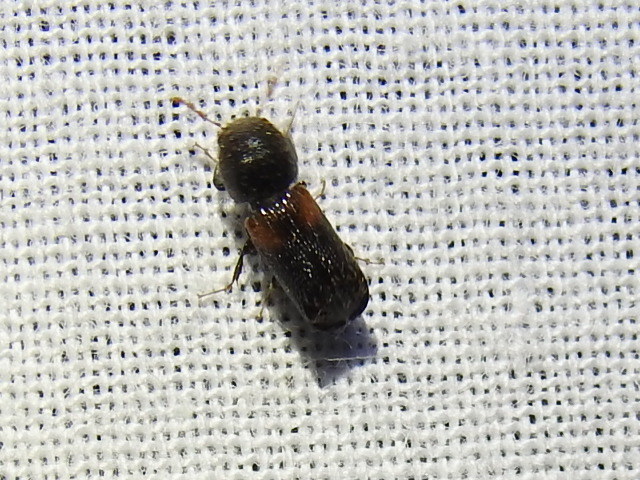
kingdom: Animalia
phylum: Arthropoda
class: Insecta
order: Coleoptera
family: Bostrichidae
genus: Xylobiops
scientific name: Xylobiops basilaris
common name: Red-shouldered bostrichid
